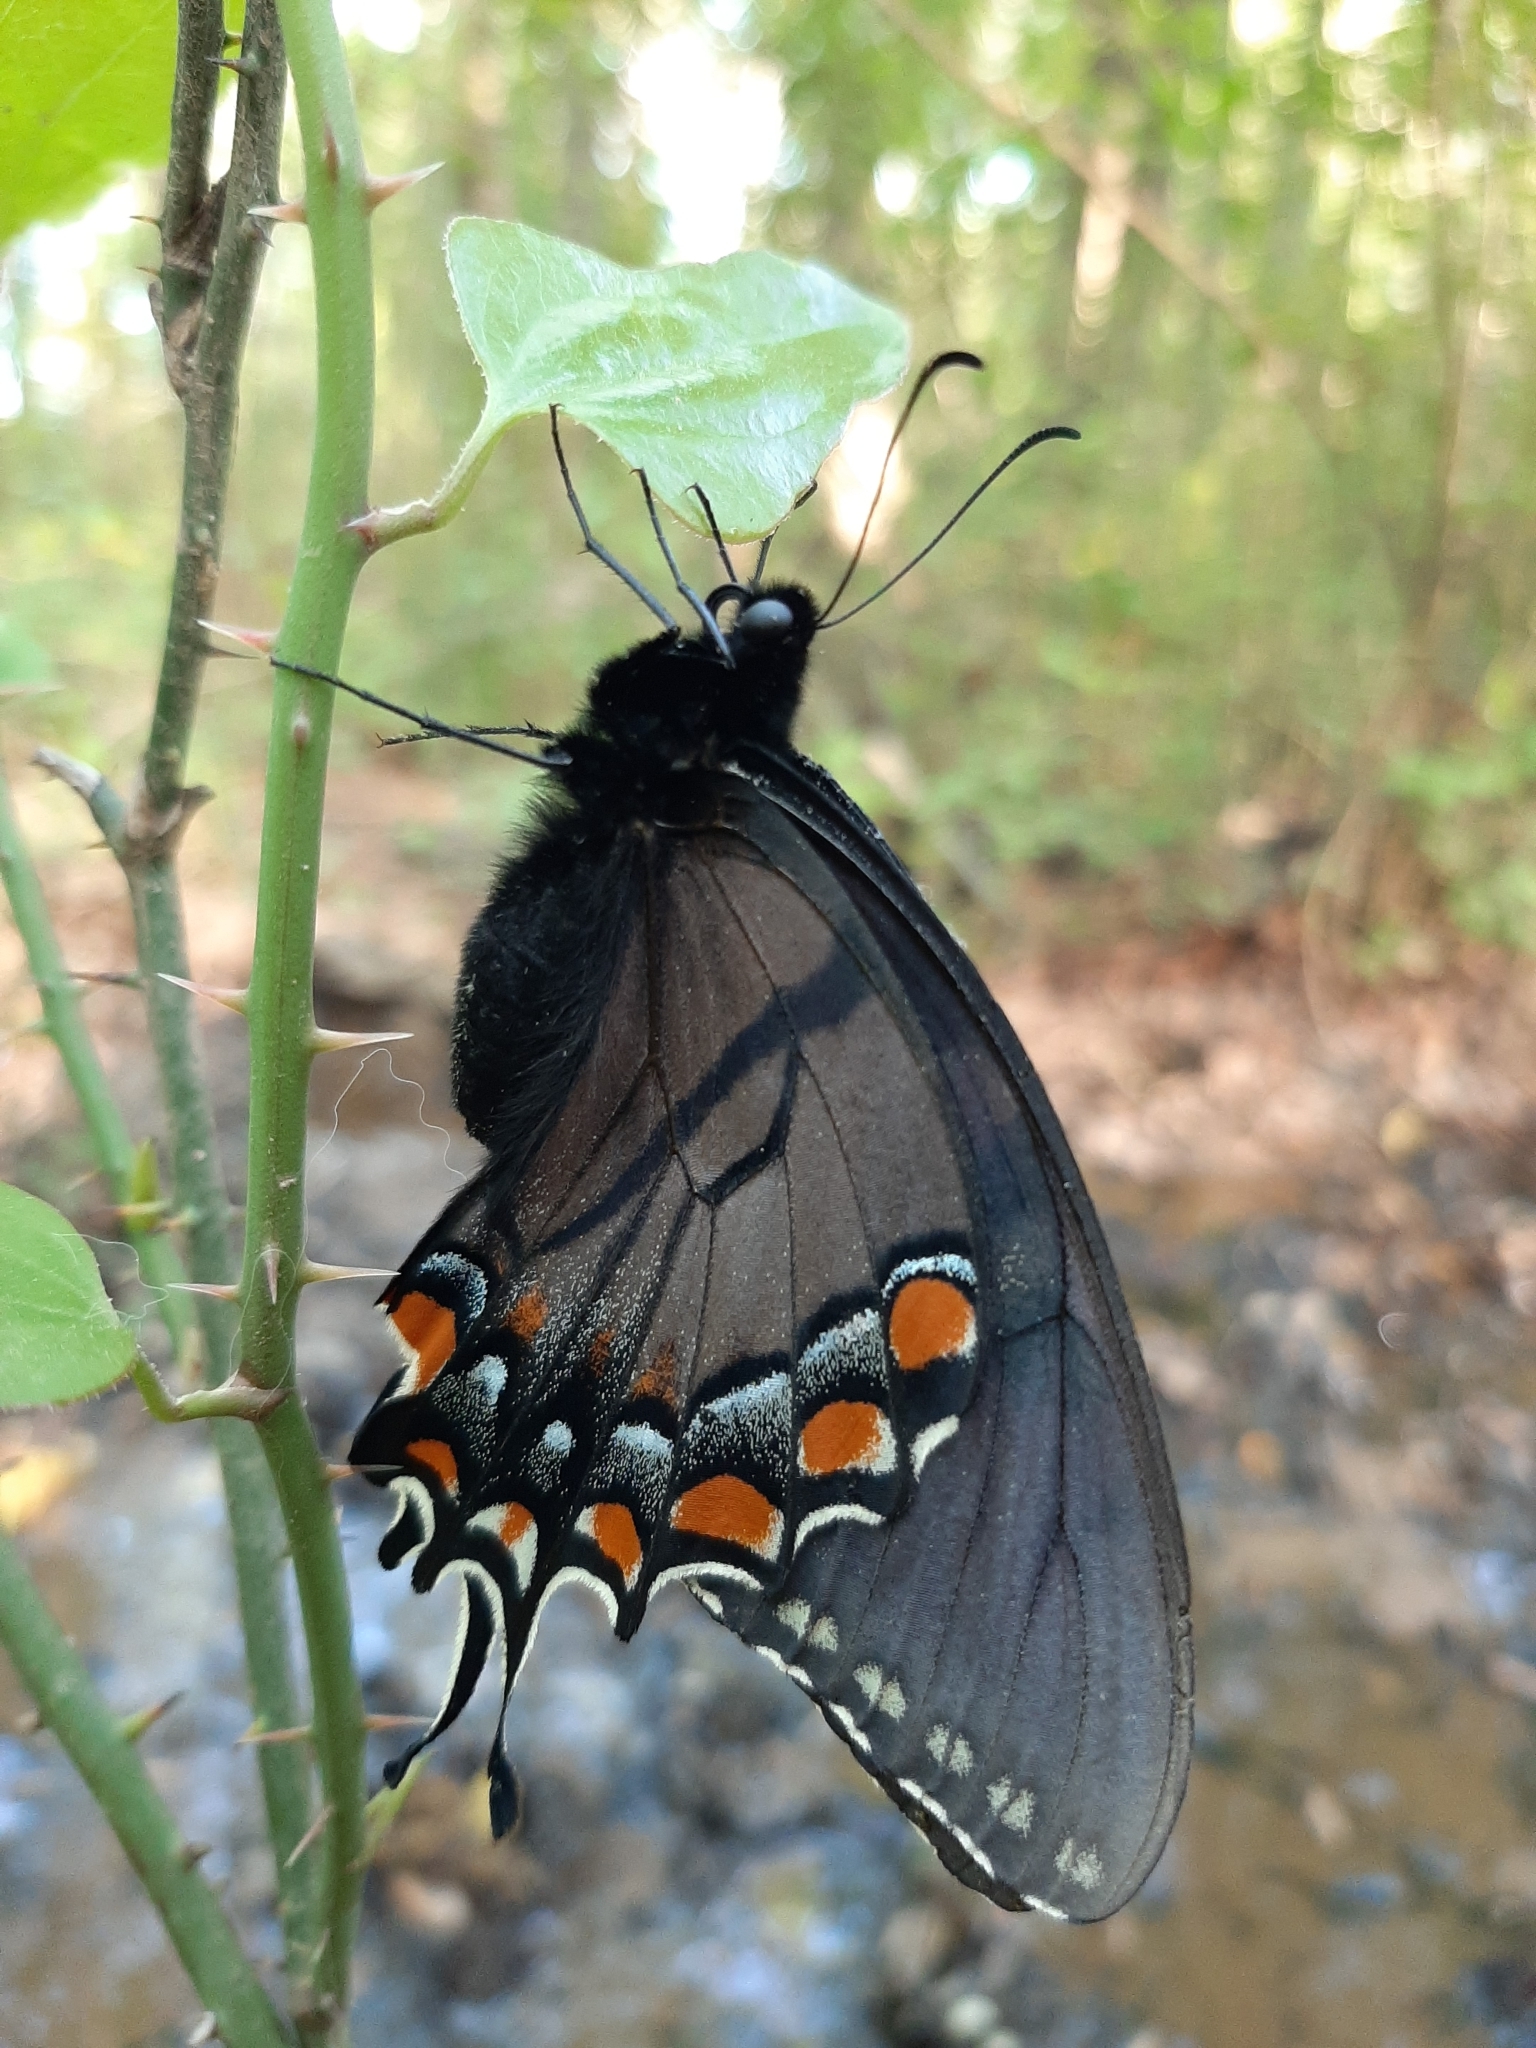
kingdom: Animalia
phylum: Arthropoda
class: Insecta
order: Lepidoptera
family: Papilionidae
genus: Papilio
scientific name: Papilio glaucus
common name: Tiger swallowtail
